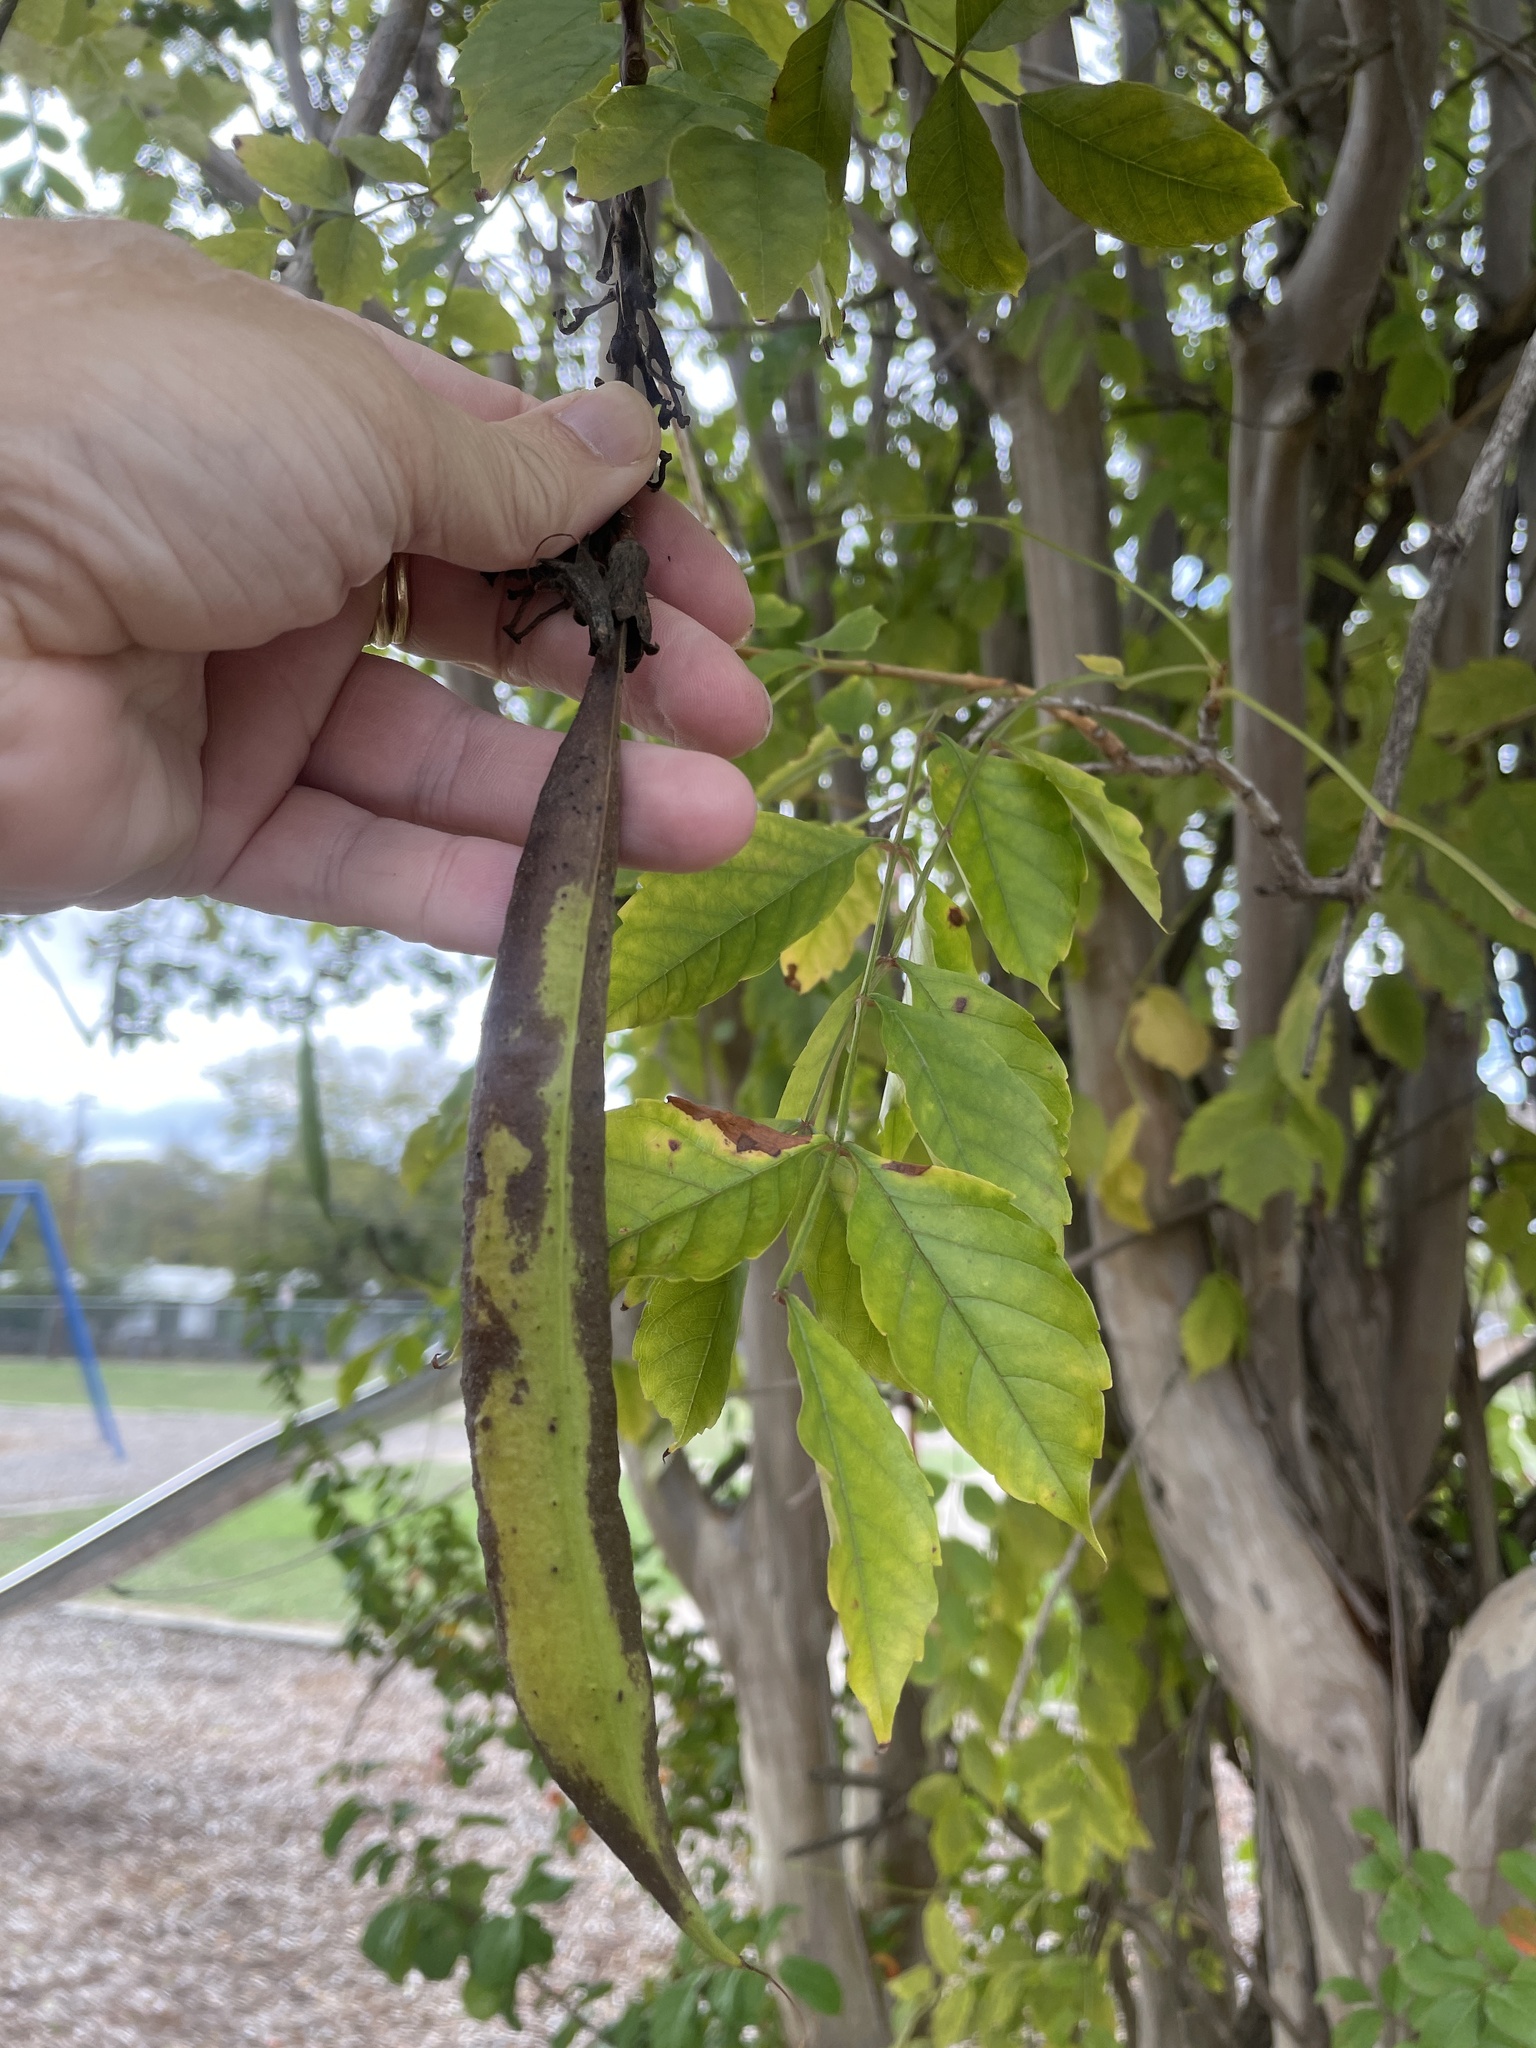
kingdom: Plantae
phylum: Tracheophyta
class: Magnoliopsida
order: Lamiales
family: Bignoniaceae
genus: Campsis
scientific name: Campsis radicans
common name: Trumpet-creeper
